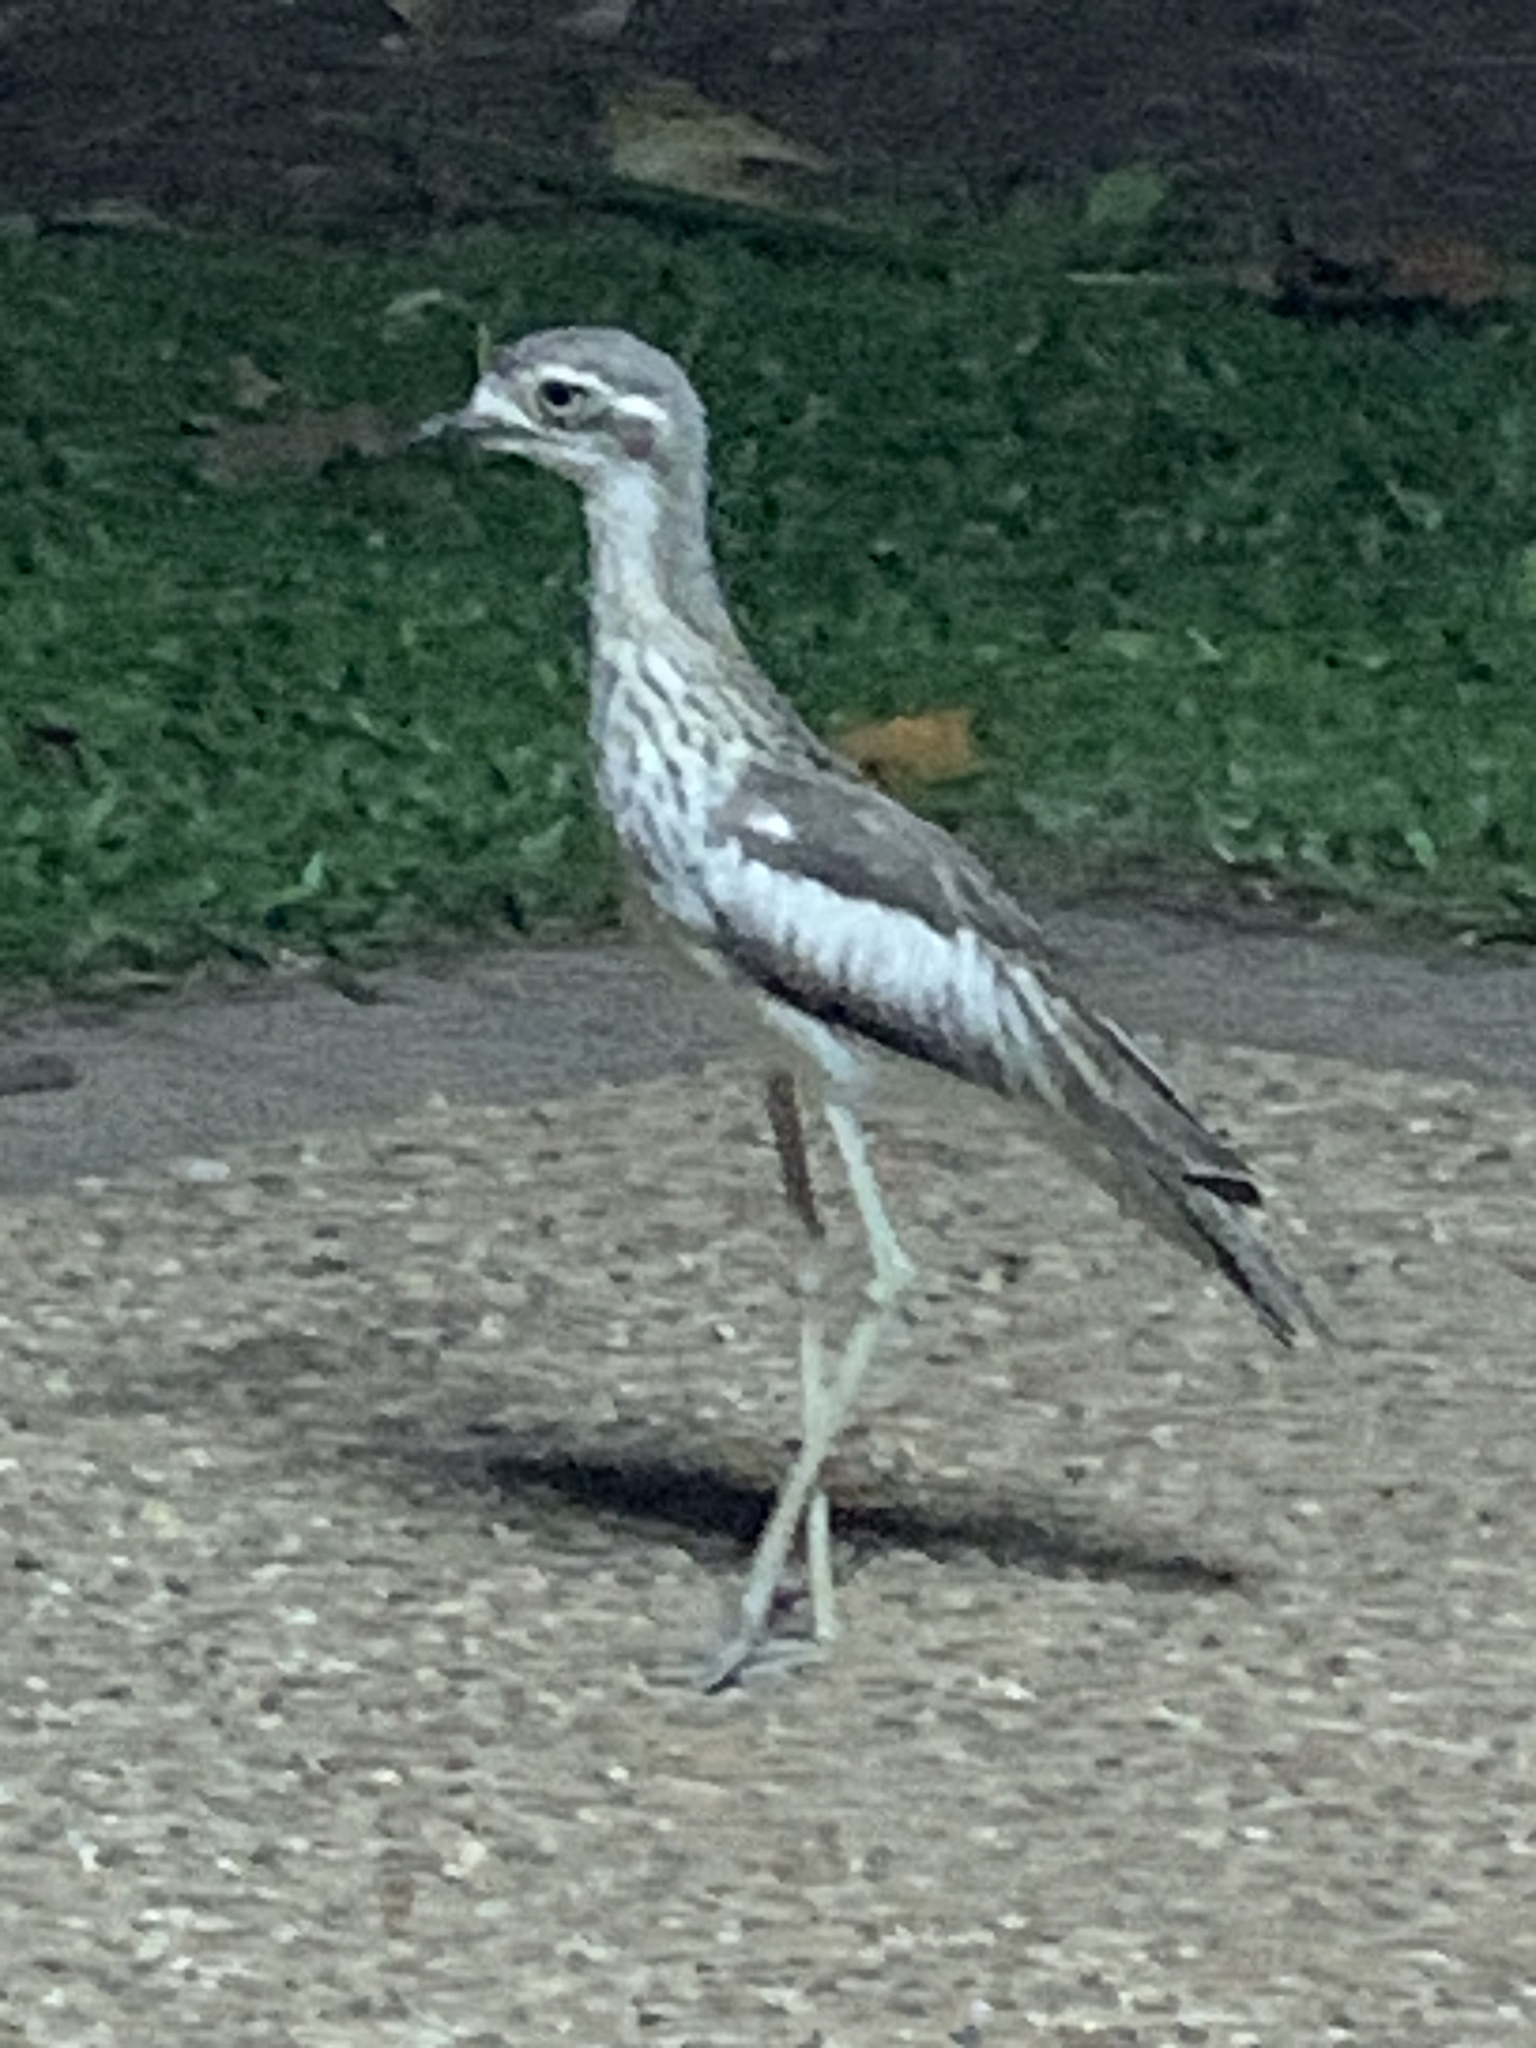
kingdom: Animalia
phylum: Chordata
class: Aves
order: Charadriiformes
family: Burhinidae
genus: Burhinus
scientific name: Burhinus grallarius
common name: Bush stone-curlew
